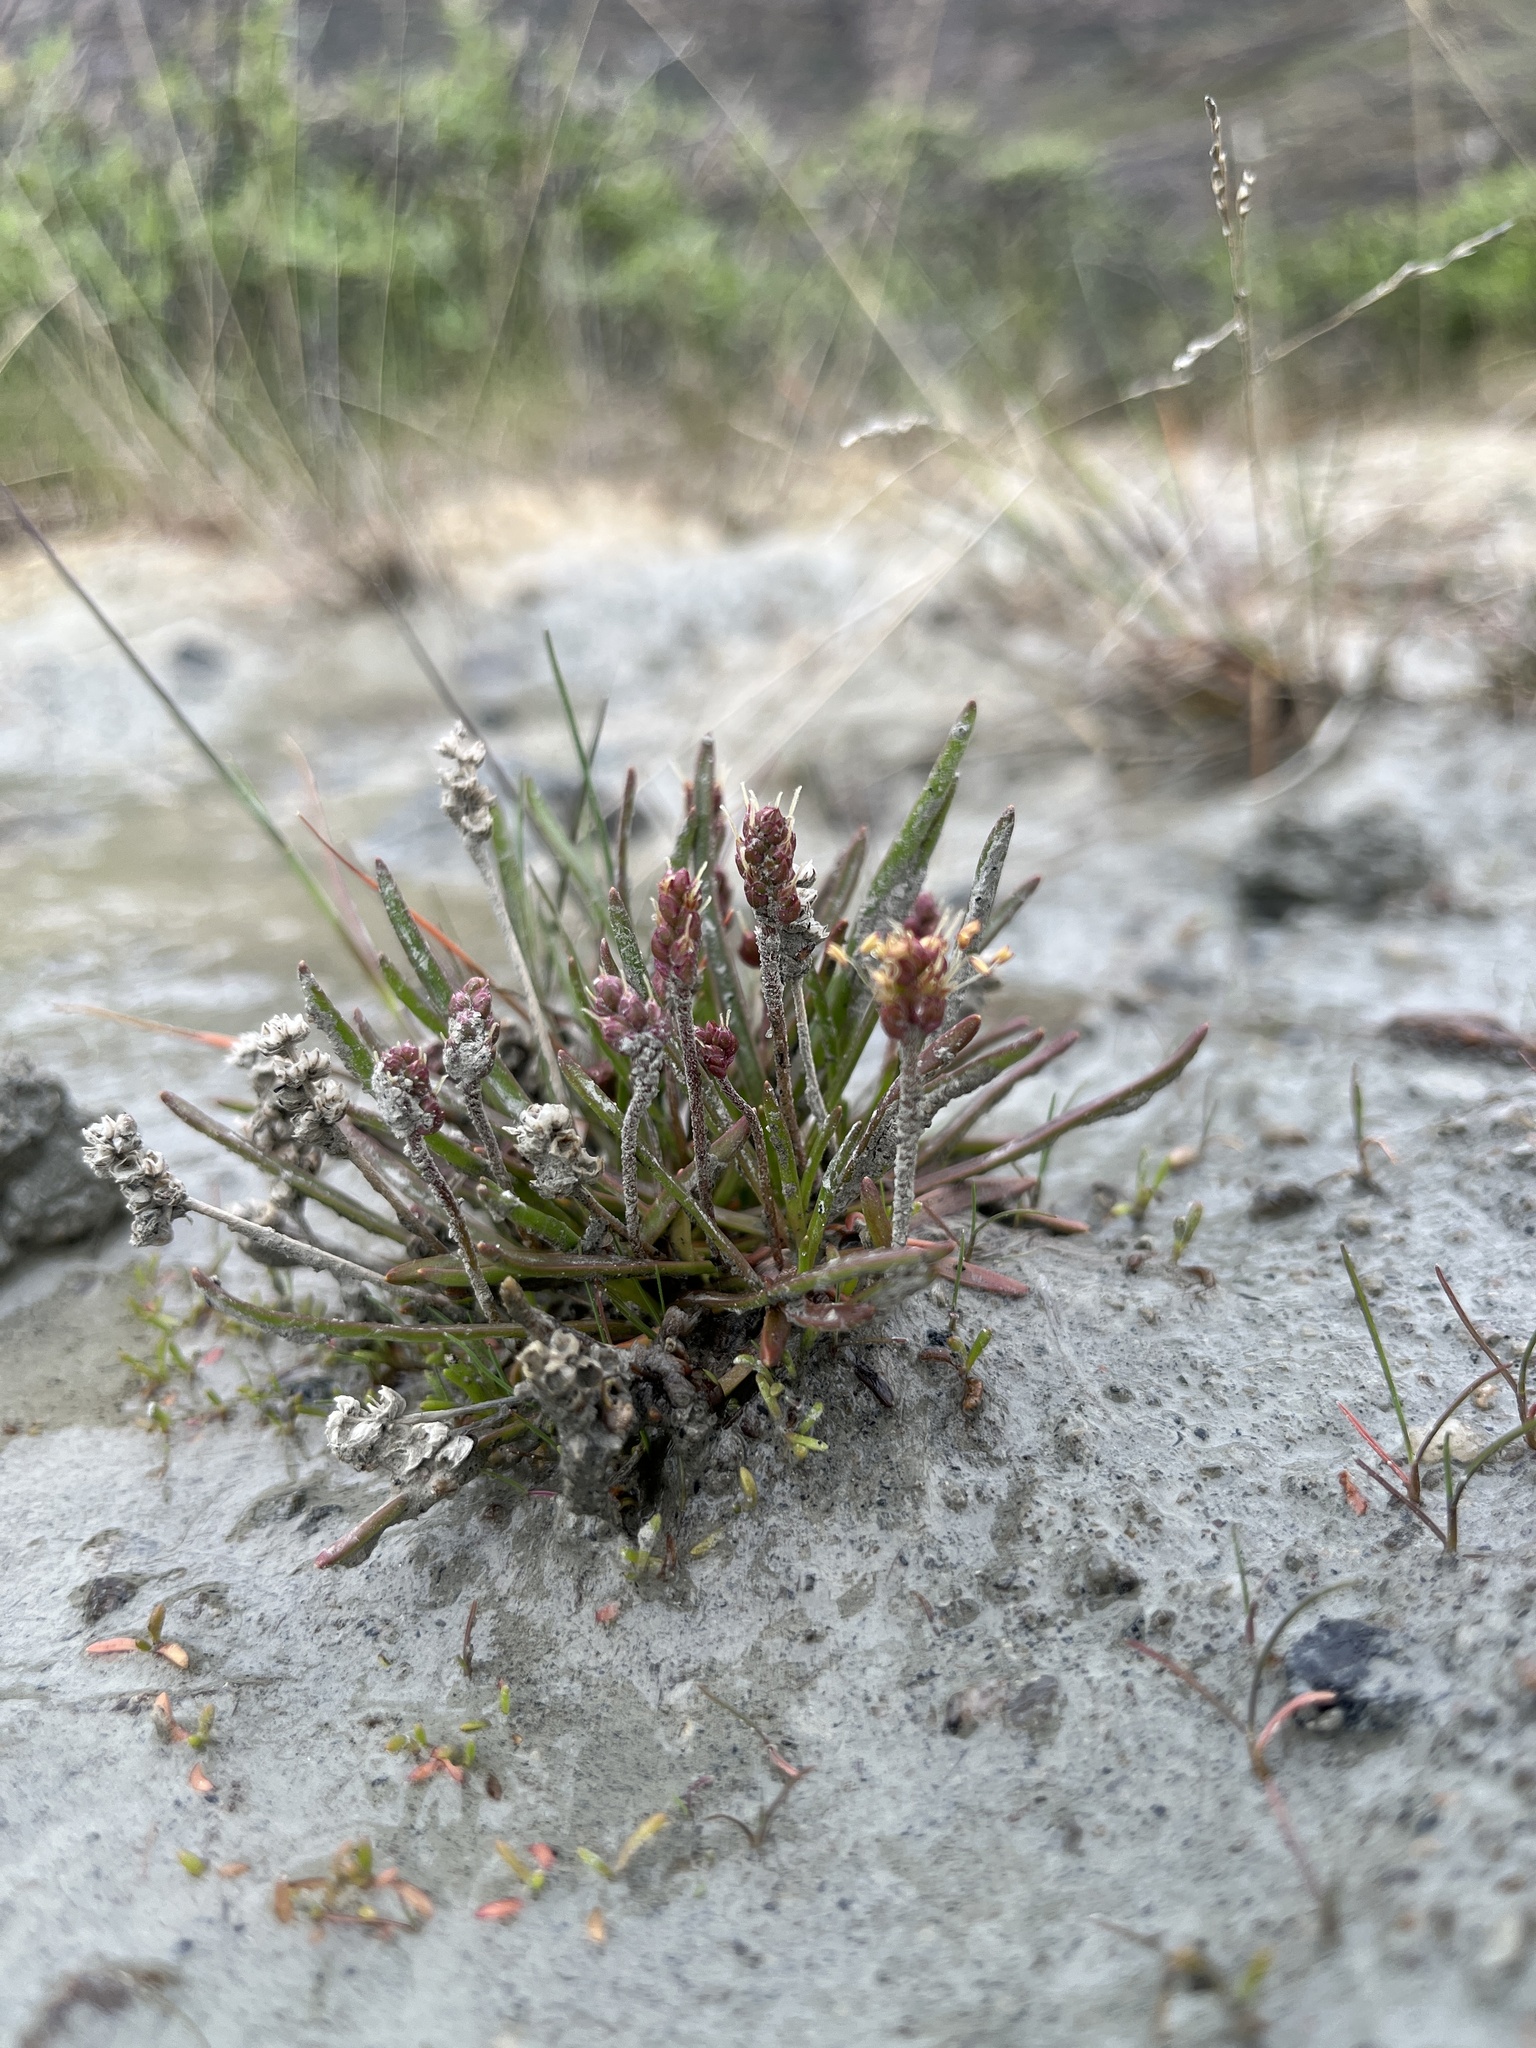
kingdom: Plantae
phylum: Tracheophyta
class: Magnoliopsida
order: Lamiales
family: Plantaginaceae
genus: Plantago
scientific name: Plantago maritima
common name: Sea plantain
